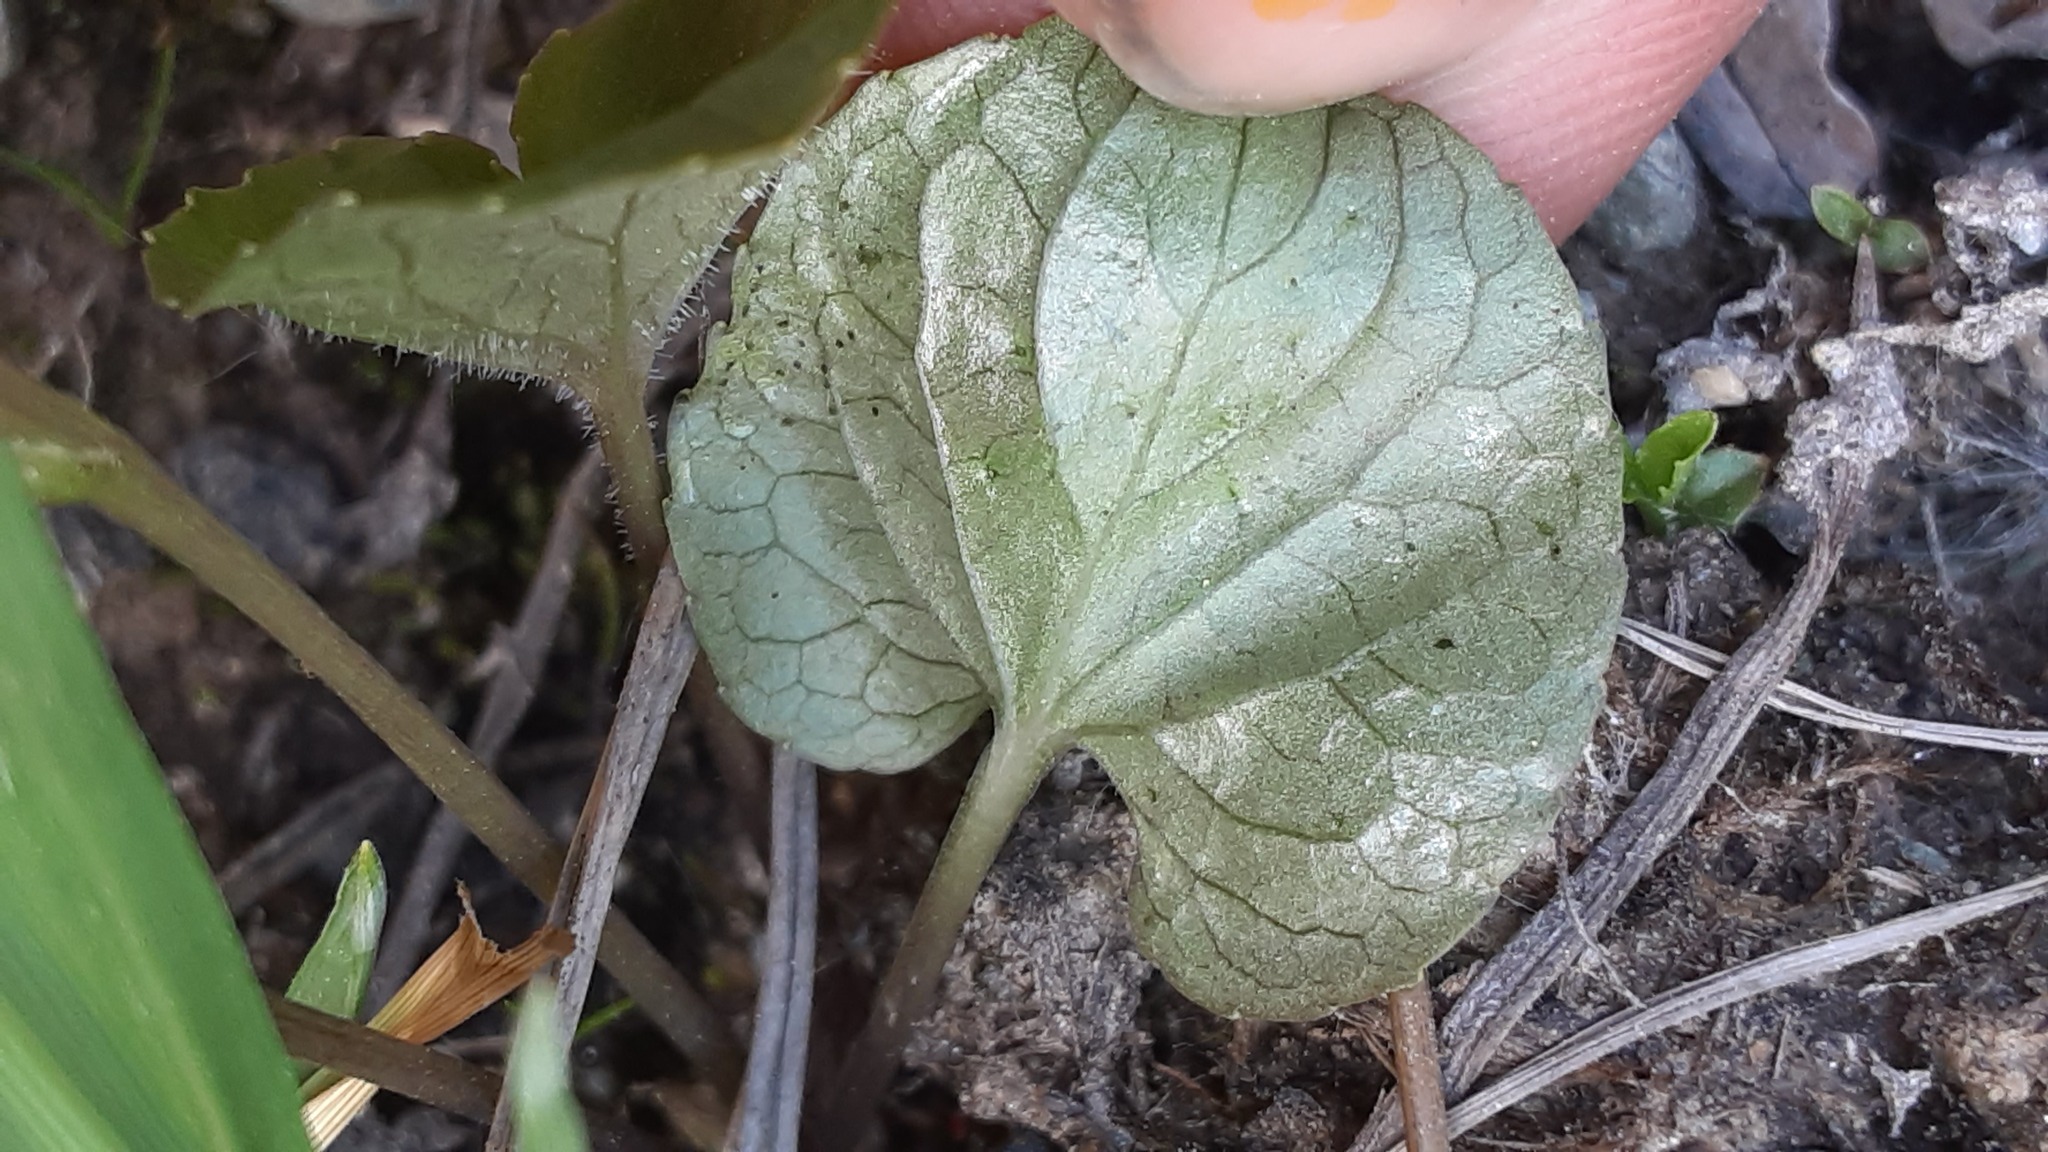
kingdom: Plantae
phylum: Tracheophyta
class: Magnoliopsida
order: Malpighiales
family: Violaceae
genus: Viola
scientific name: Viola epipsila
